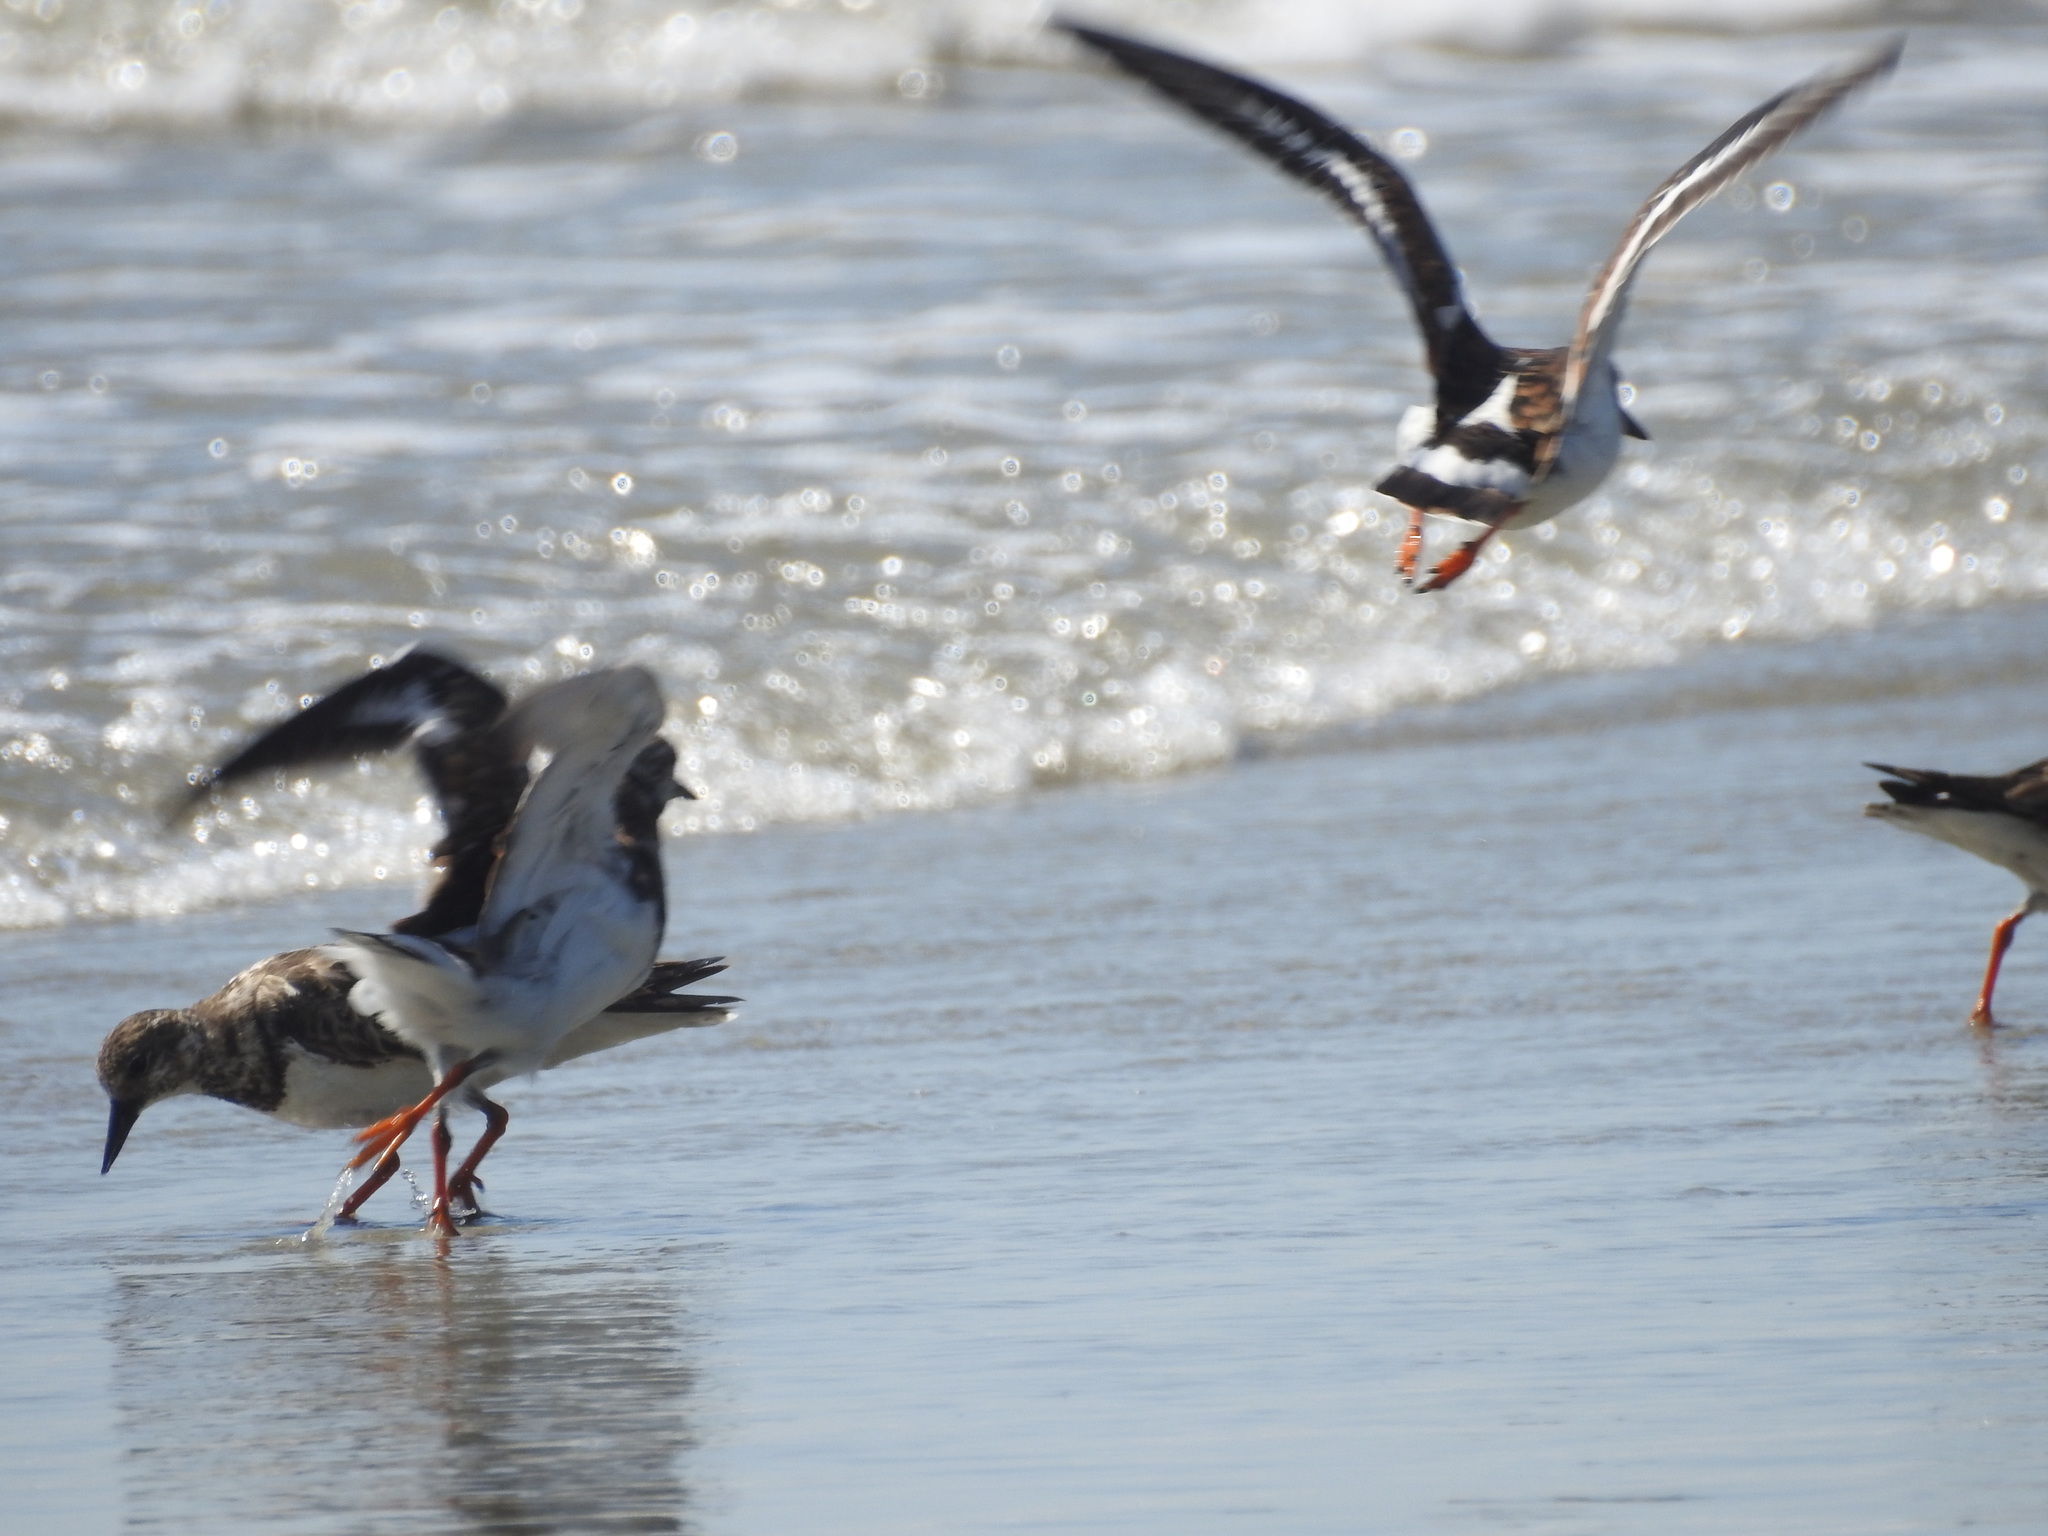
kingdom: Animalia
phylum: Chordata
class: Aves
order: Charadriiformes
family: Scolopacidae
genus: Arenaria
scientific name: Arenaria interpres
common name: Ruddy turnstone
